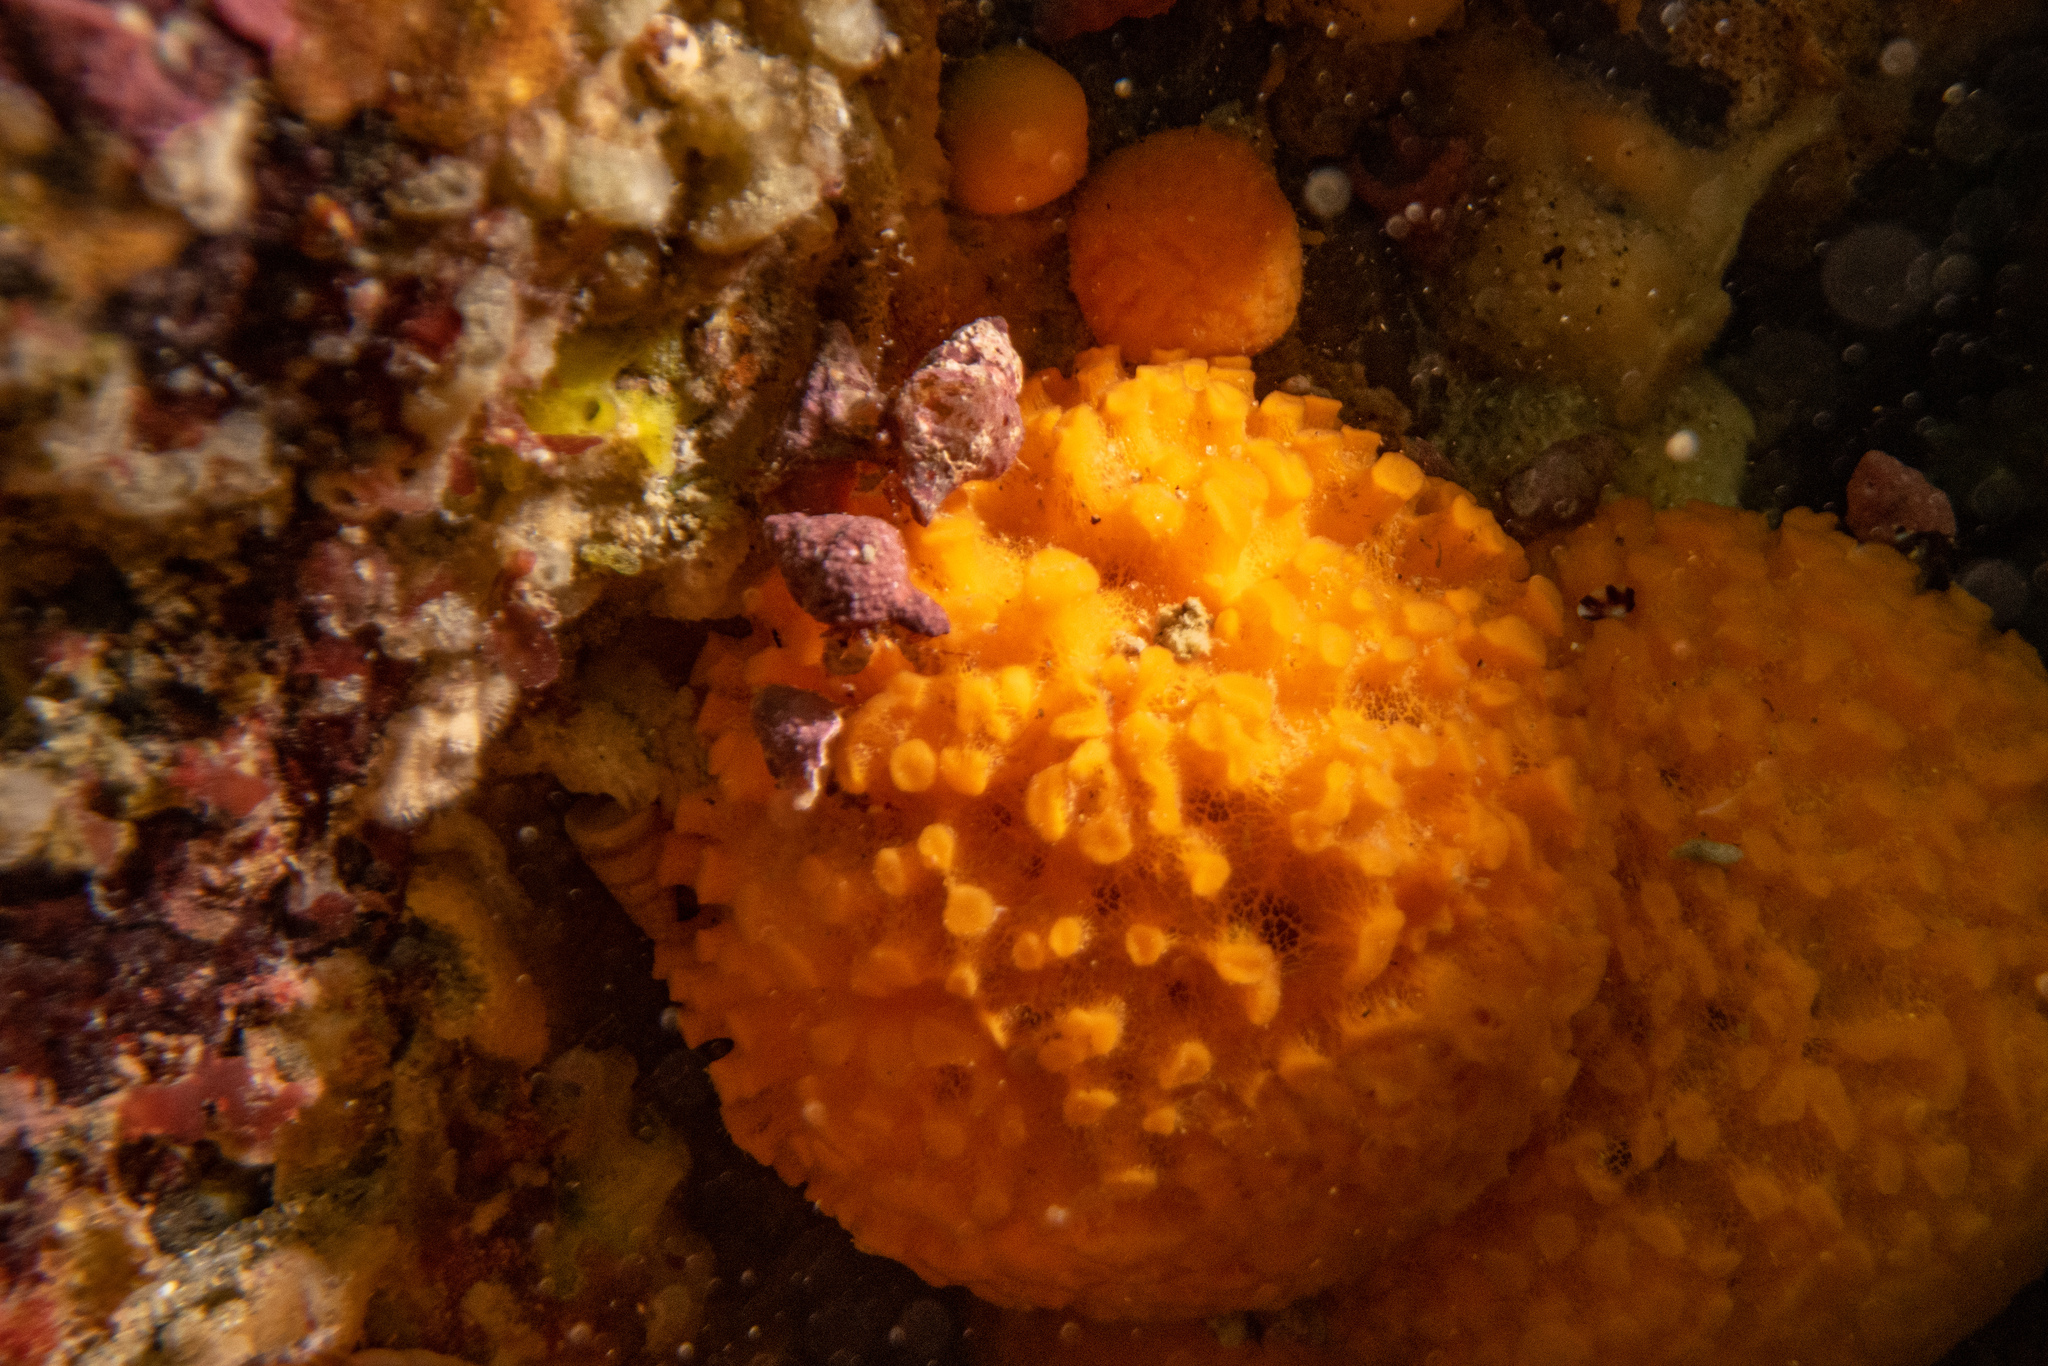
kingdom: Animalia
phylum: Porifera
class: Demospongiae
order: Tethyida
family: Tethyidae
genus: Tethya
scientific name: Tethya burtoni
